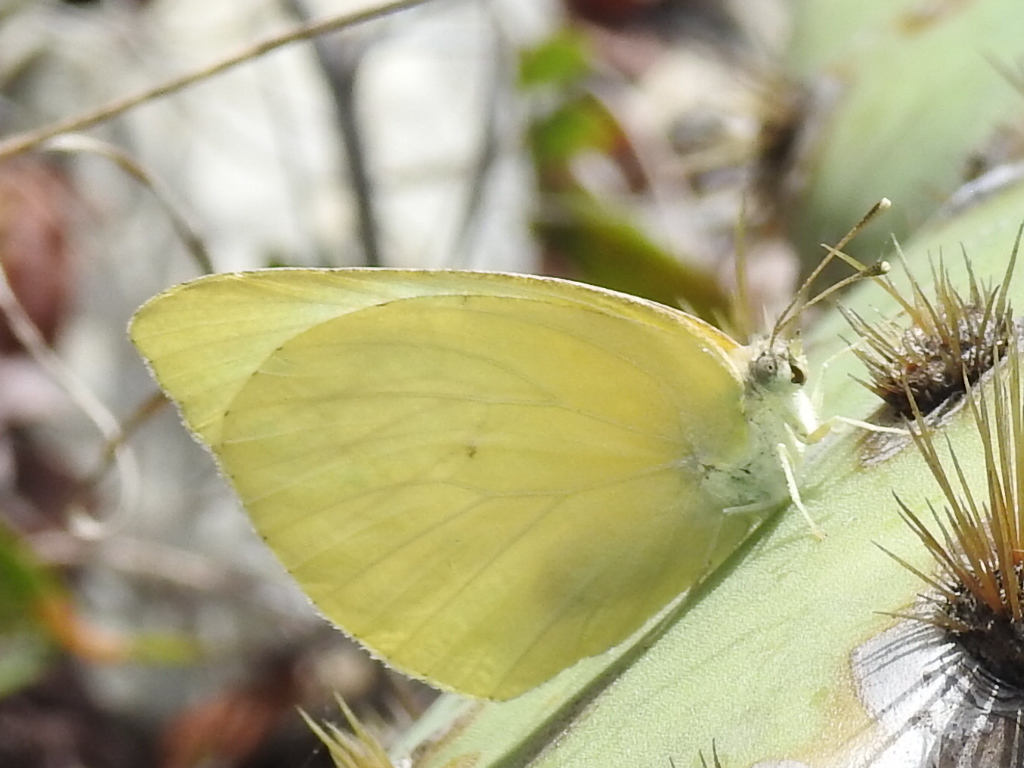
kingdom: Animalia
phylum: Arthropoda
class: Insecta
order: Lepidoptera
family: Pieridae
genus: Kricogonia
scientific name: Kricogonia lyside
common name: Guayacan sulphur,
